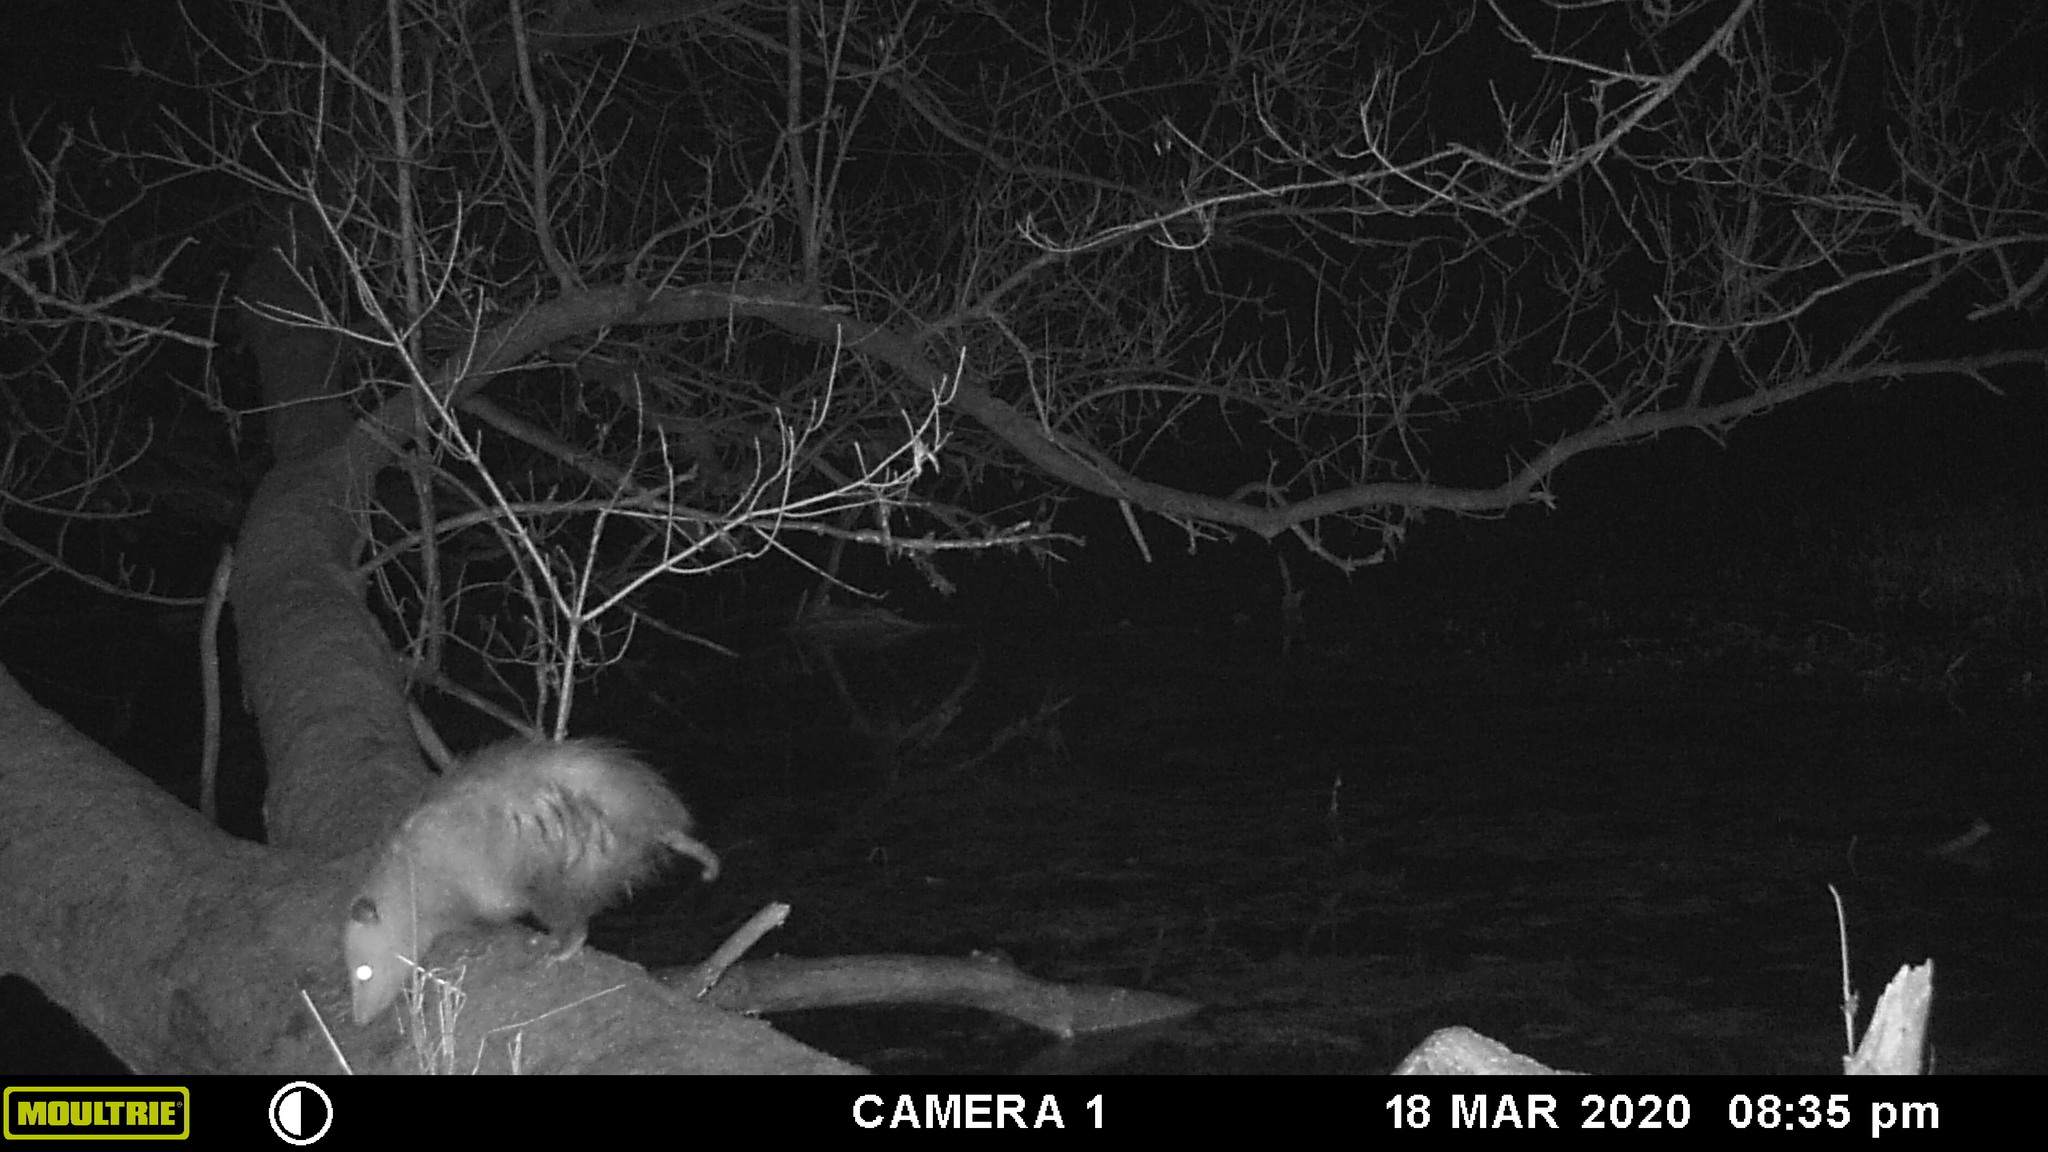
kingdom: Animalia
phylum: Chordata
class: Mammalia
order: Didelphimorphia
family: Didelphidae
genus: Didelphis
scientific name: Didelphis virginiana
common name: Virginia opossum
